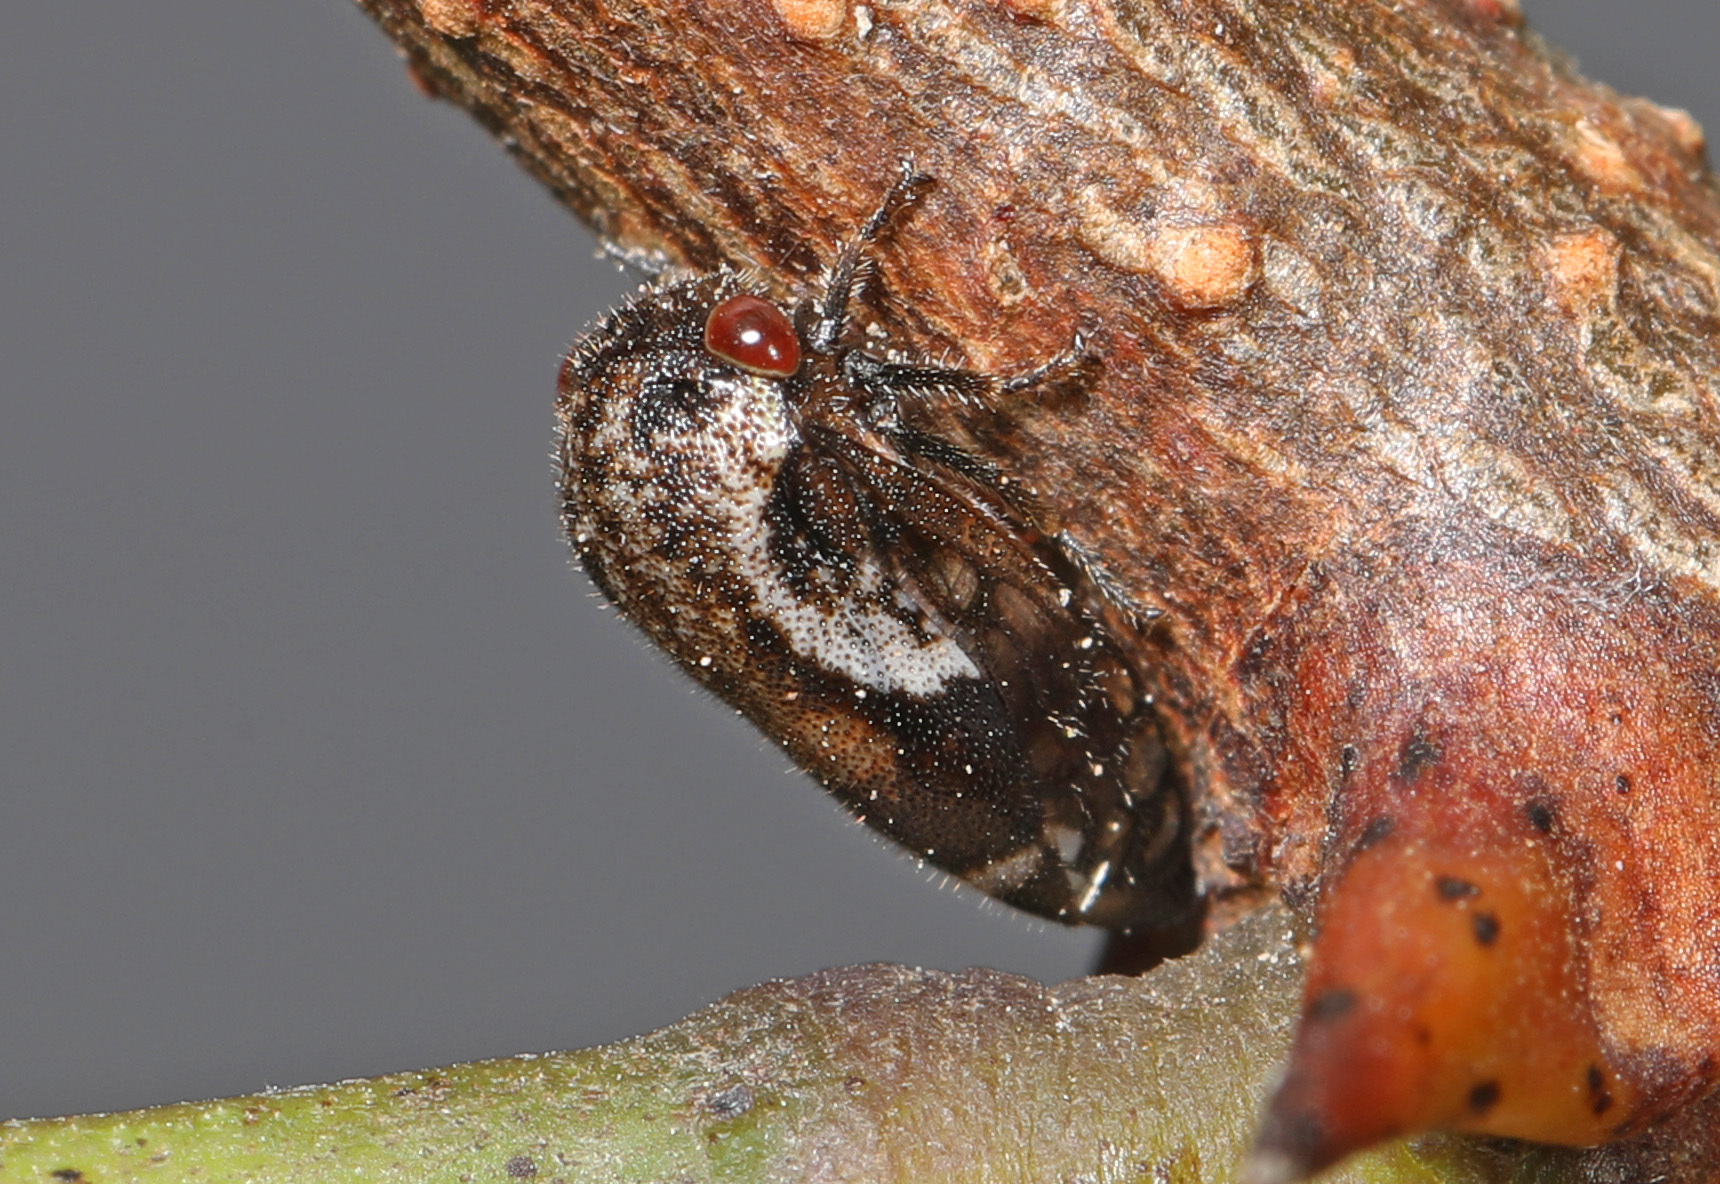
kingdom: Animalia
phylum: Arthropoda
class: Insecta
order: Hemiptera
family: Membracidae
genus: Vanduzea
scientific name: Vanduzea arquata
